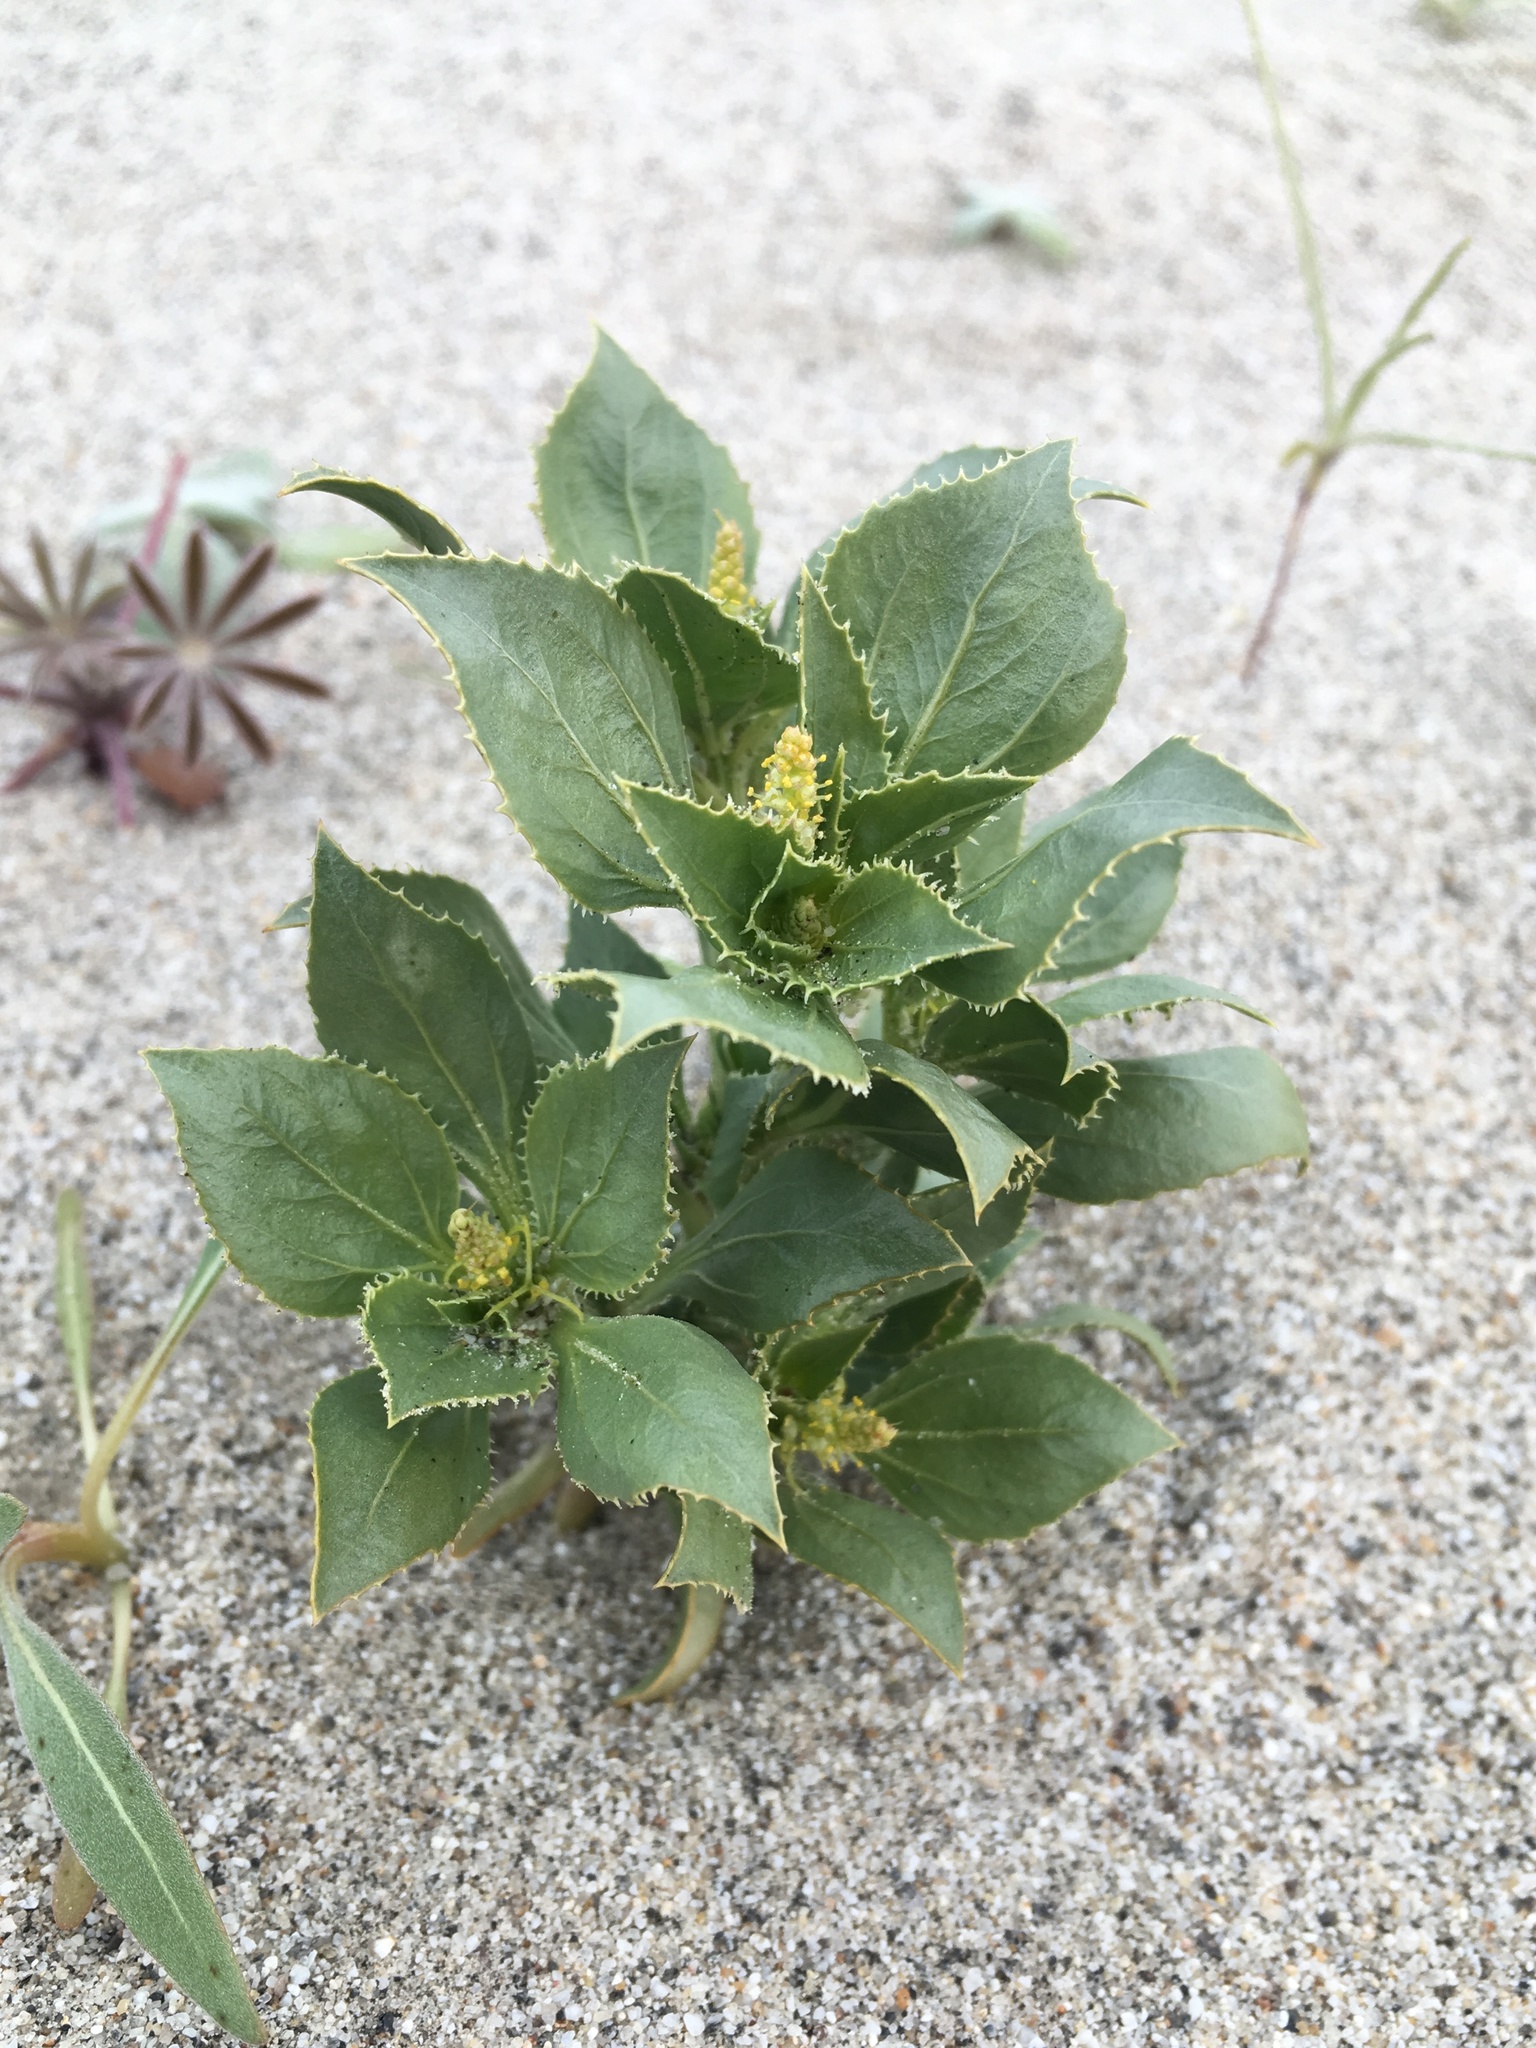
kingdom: Plantae
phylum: Tracheophyta
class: Magnoliopsida
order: Malpighiales
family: Euphorbiaceae
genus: Stillingia
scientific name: Stillingia spinulosa
